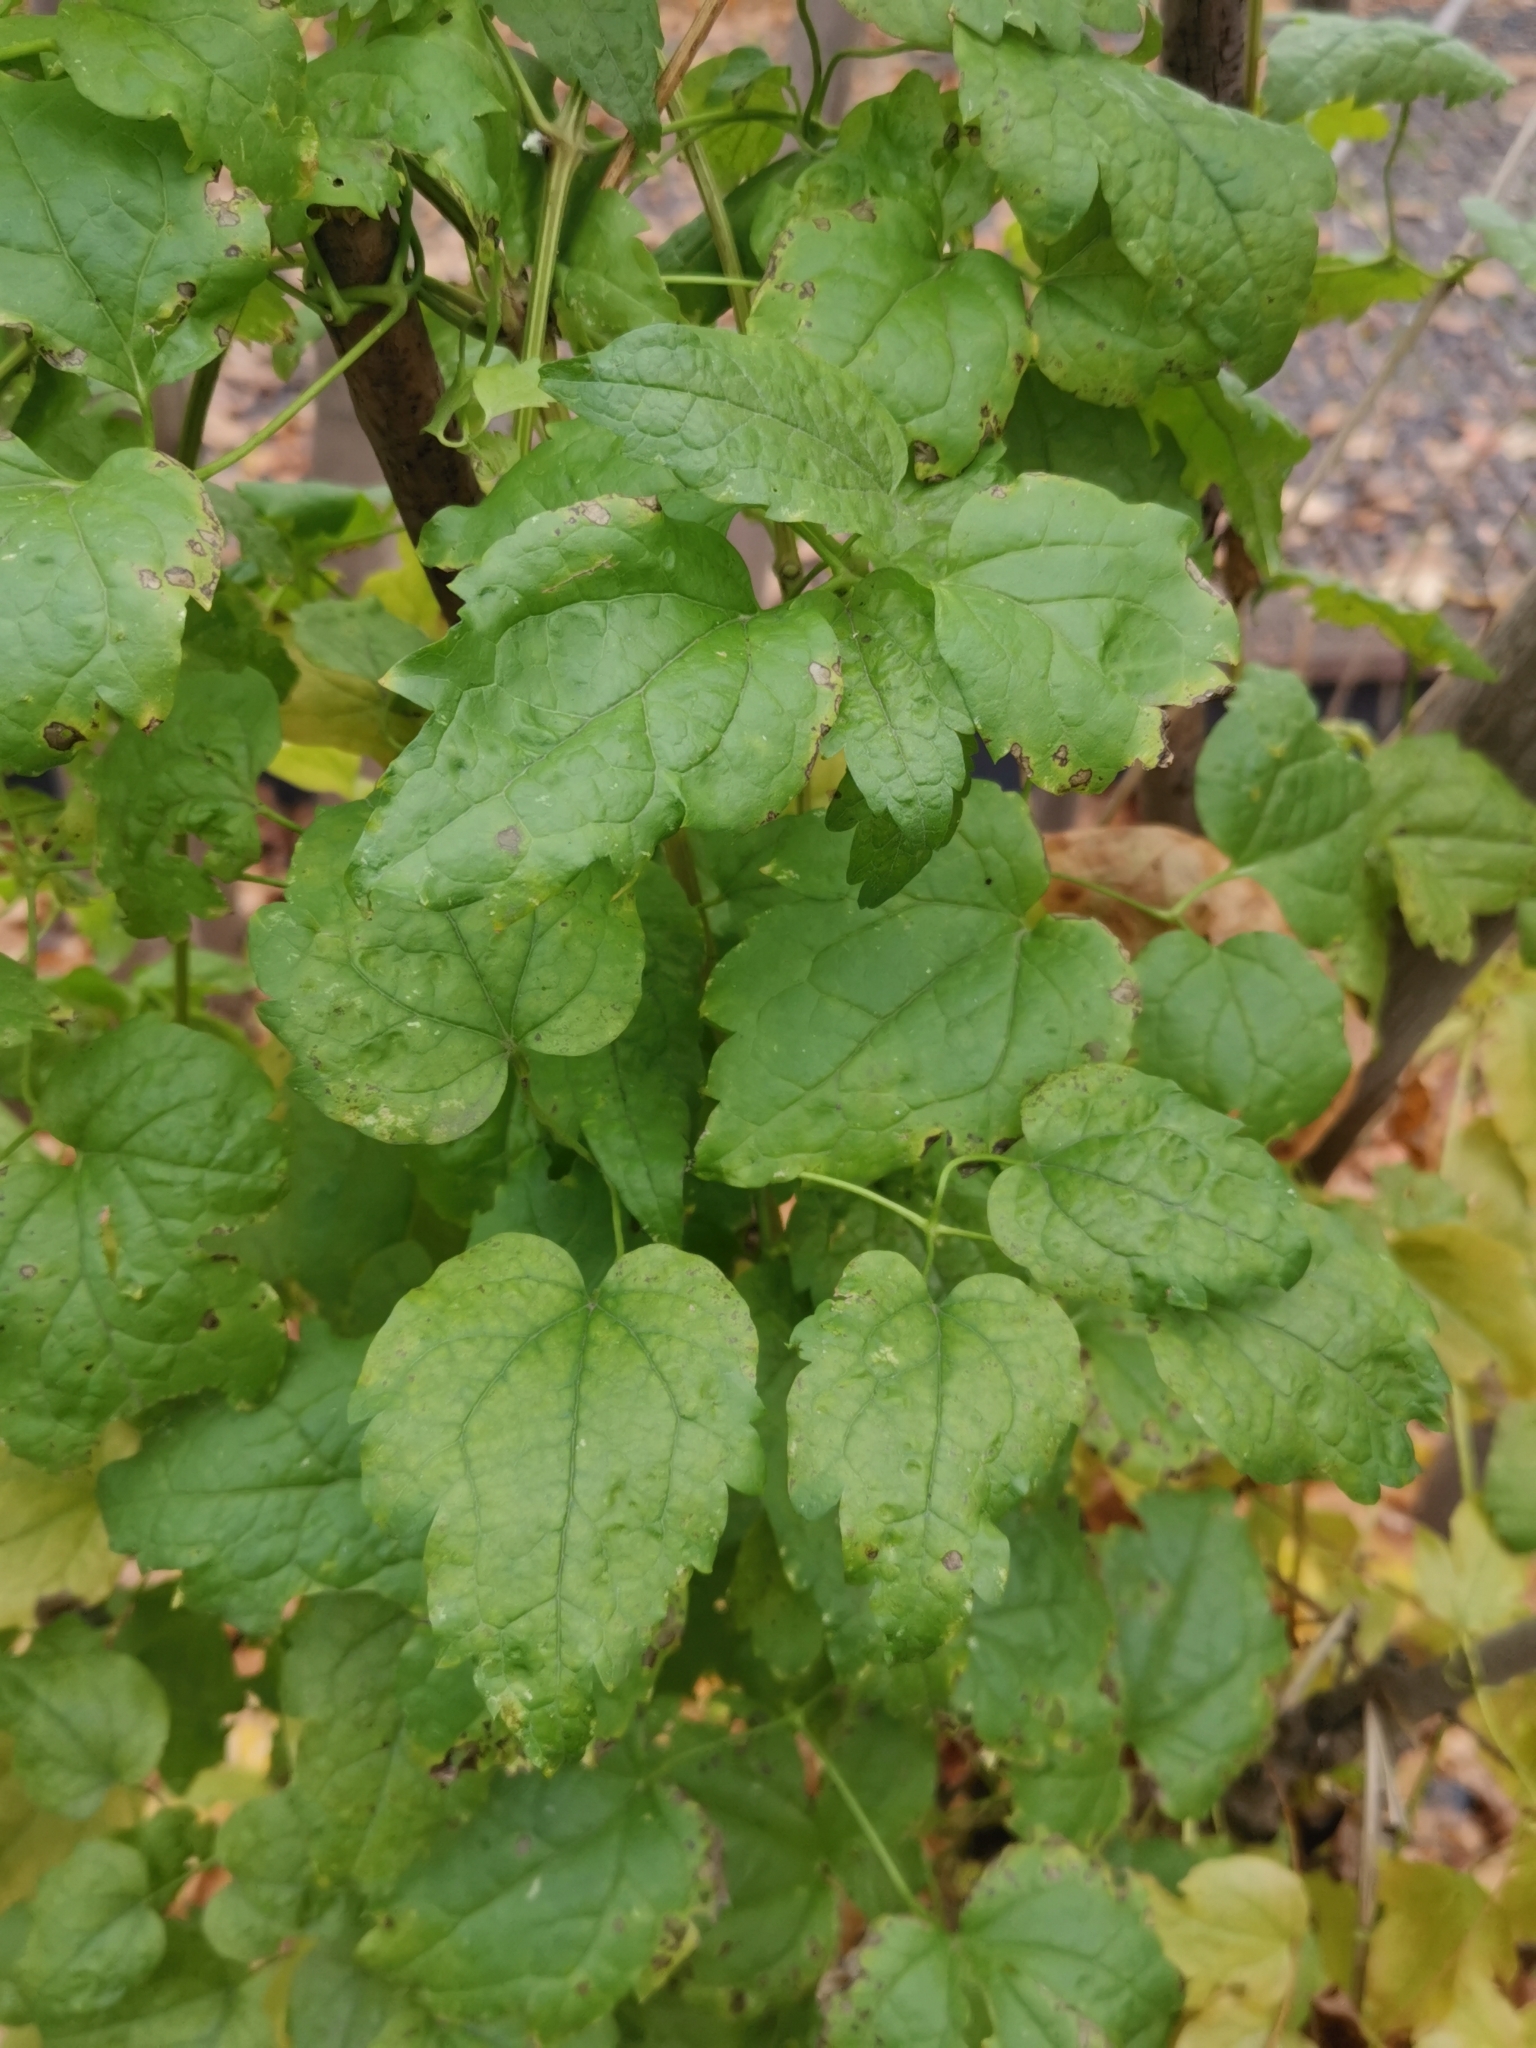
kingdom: Plantae
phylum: Tracheophyta
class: Magnoliopsida
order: Ranunculales
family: Ranunculaceae
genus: Clematis
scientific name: Clematis vitalba
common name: Evergreen clematis
